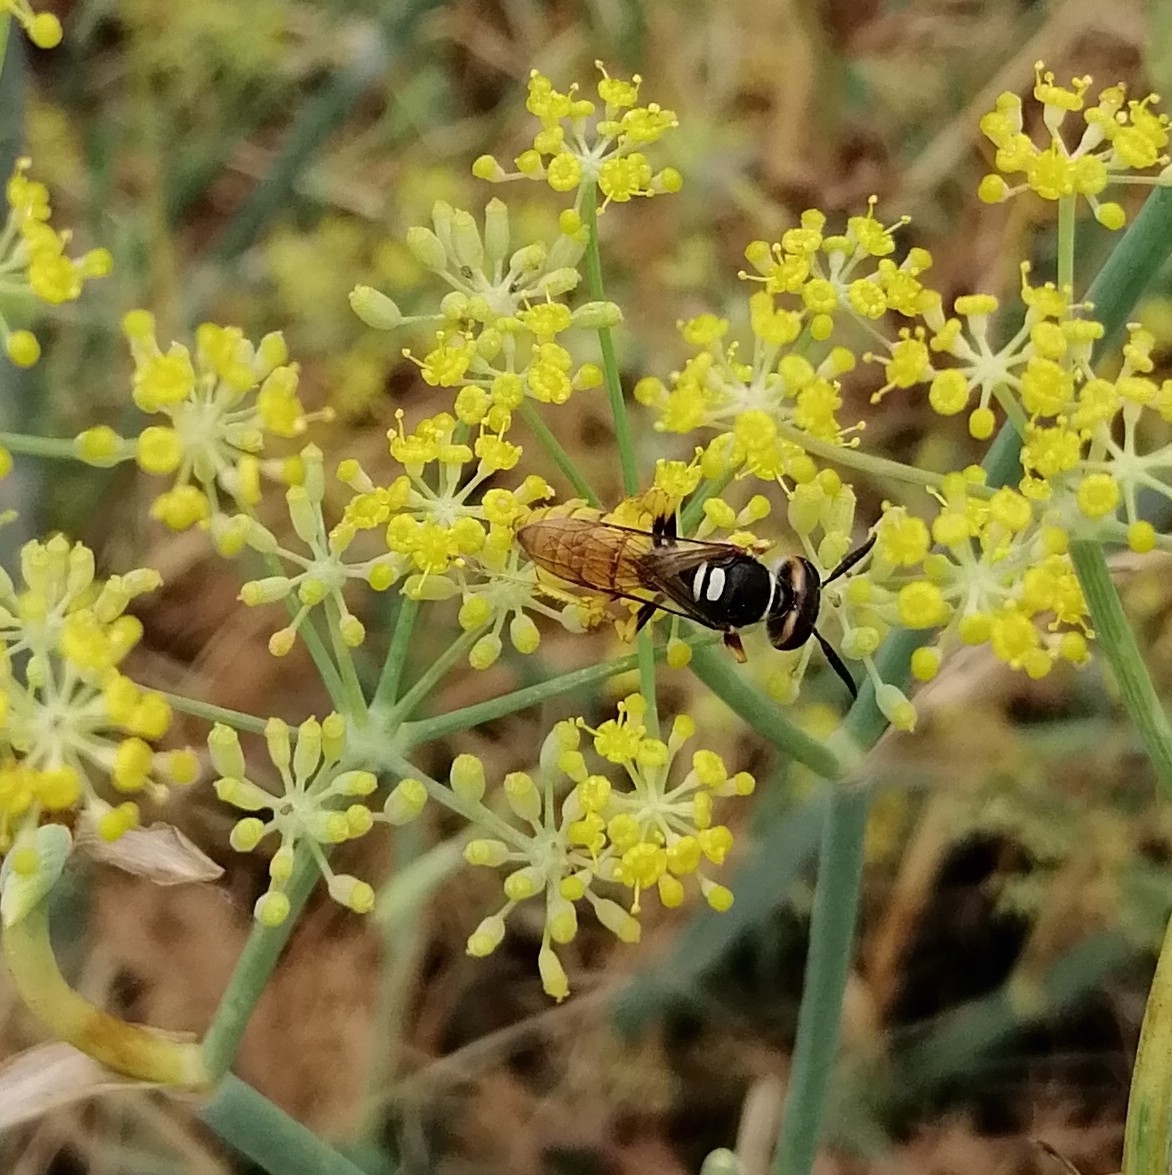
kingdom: Animalia
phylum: Arthropoda
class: Insecta
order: Hymenoptera
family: Crabronidae
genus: Philanthus
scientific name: Philanthus triangulum
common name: Bee wolf
